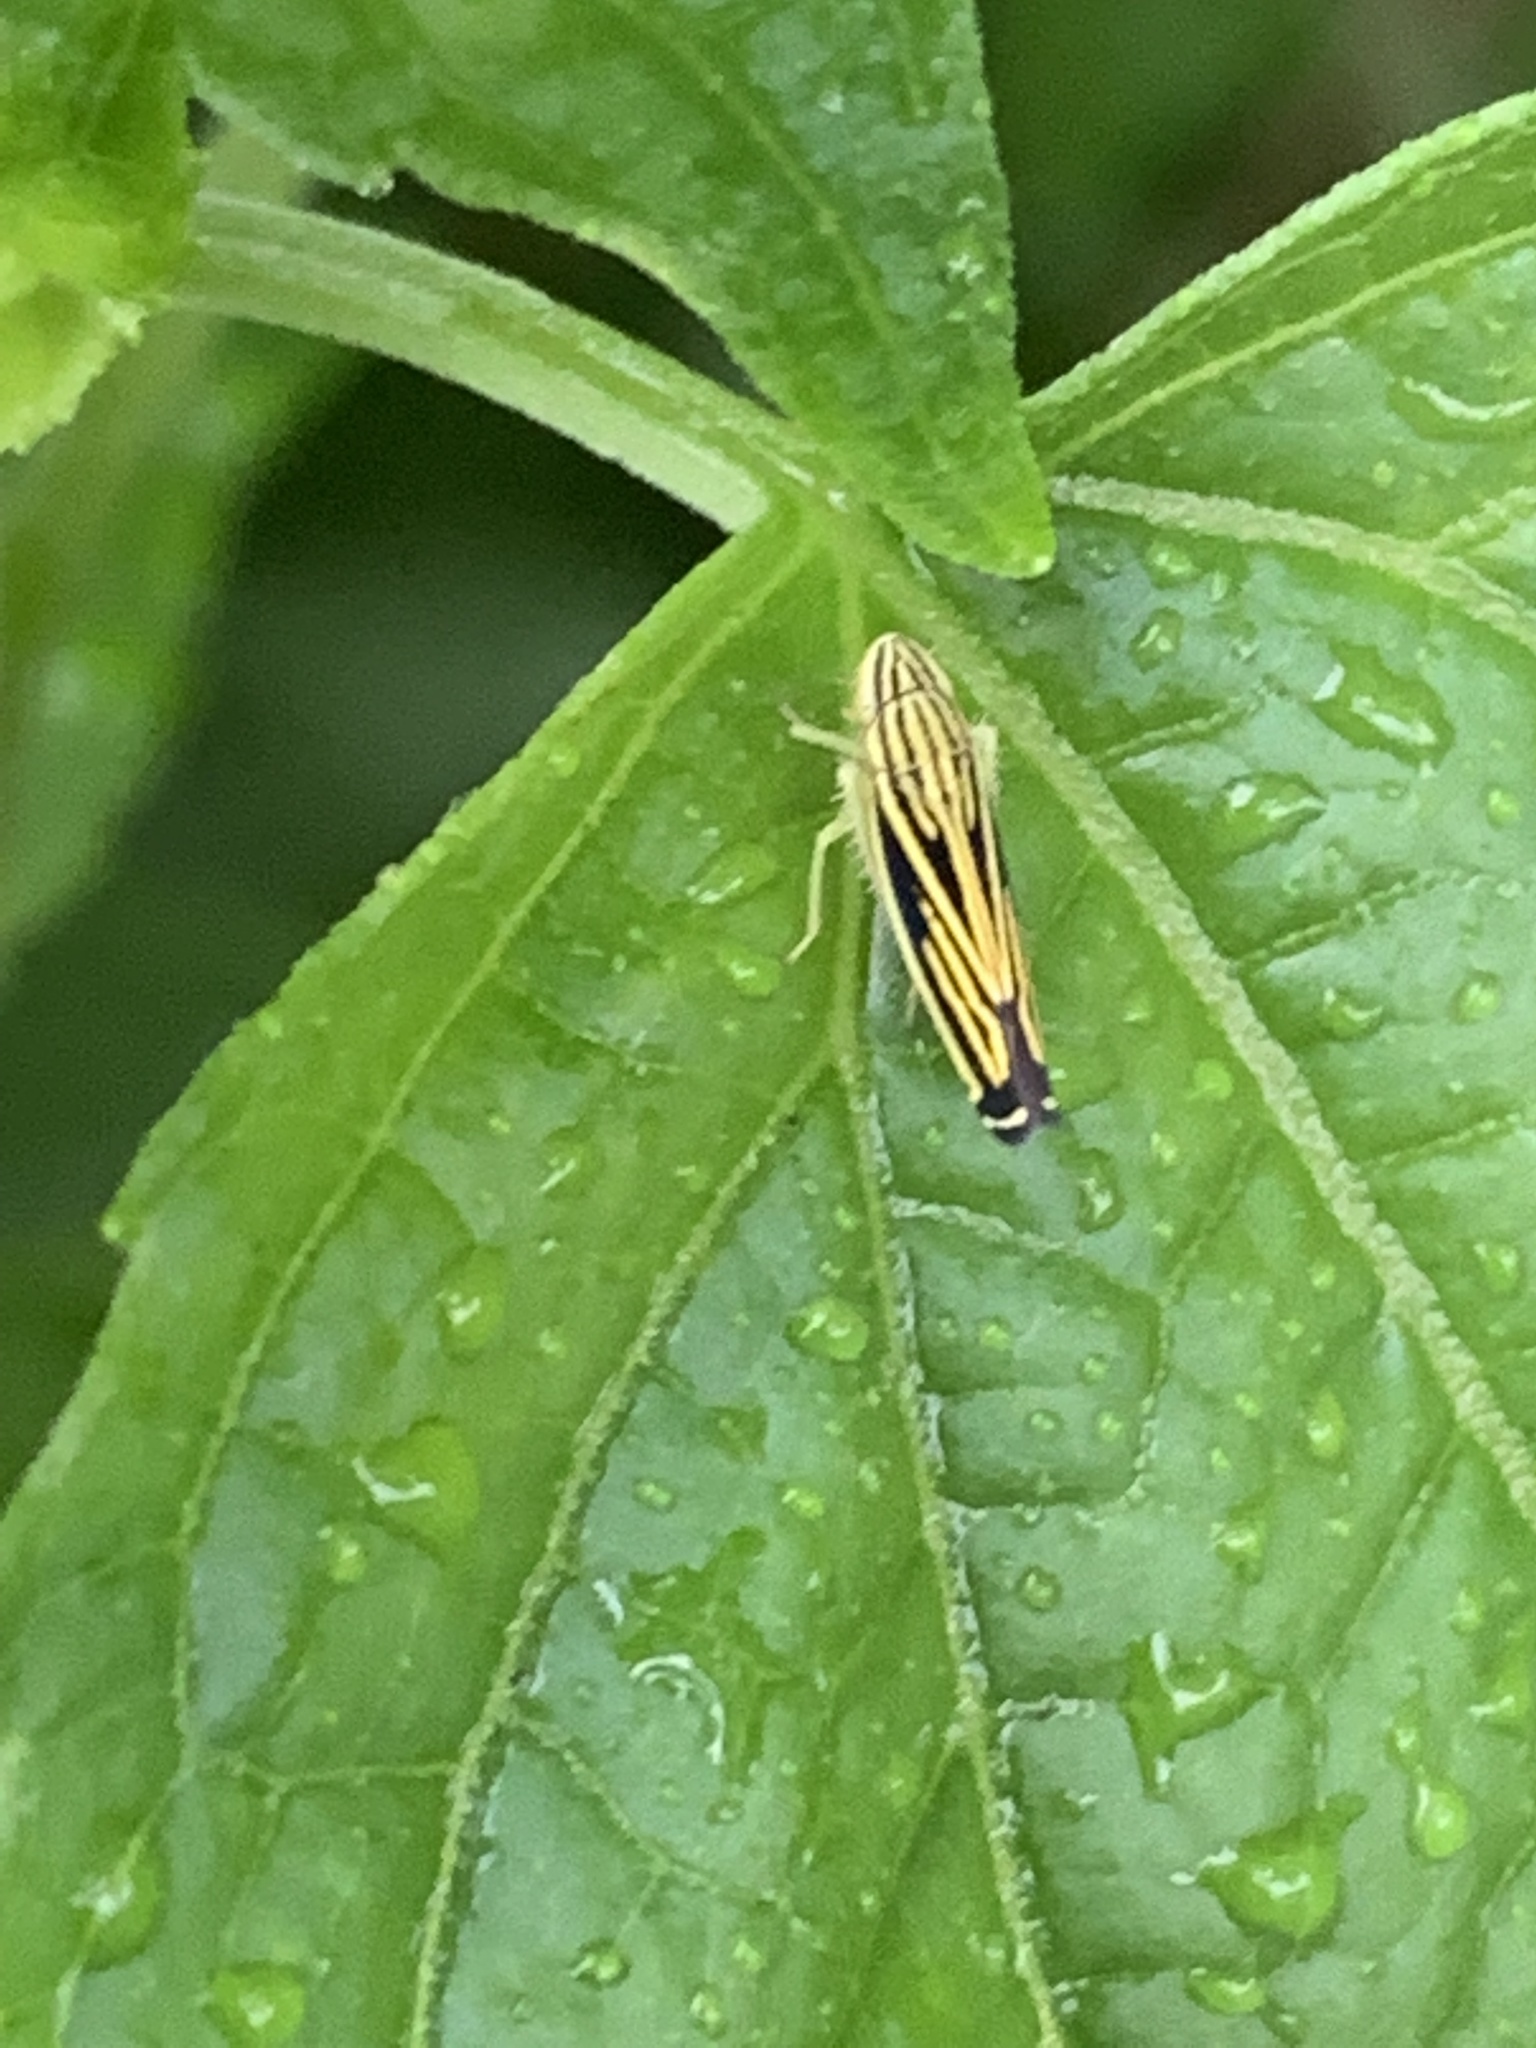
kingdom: Animalia
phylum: Arthropoda
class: Insecta
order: Hemiptera
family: Cicadellidae
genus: Sibovia
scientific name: Sibovia occatoria
